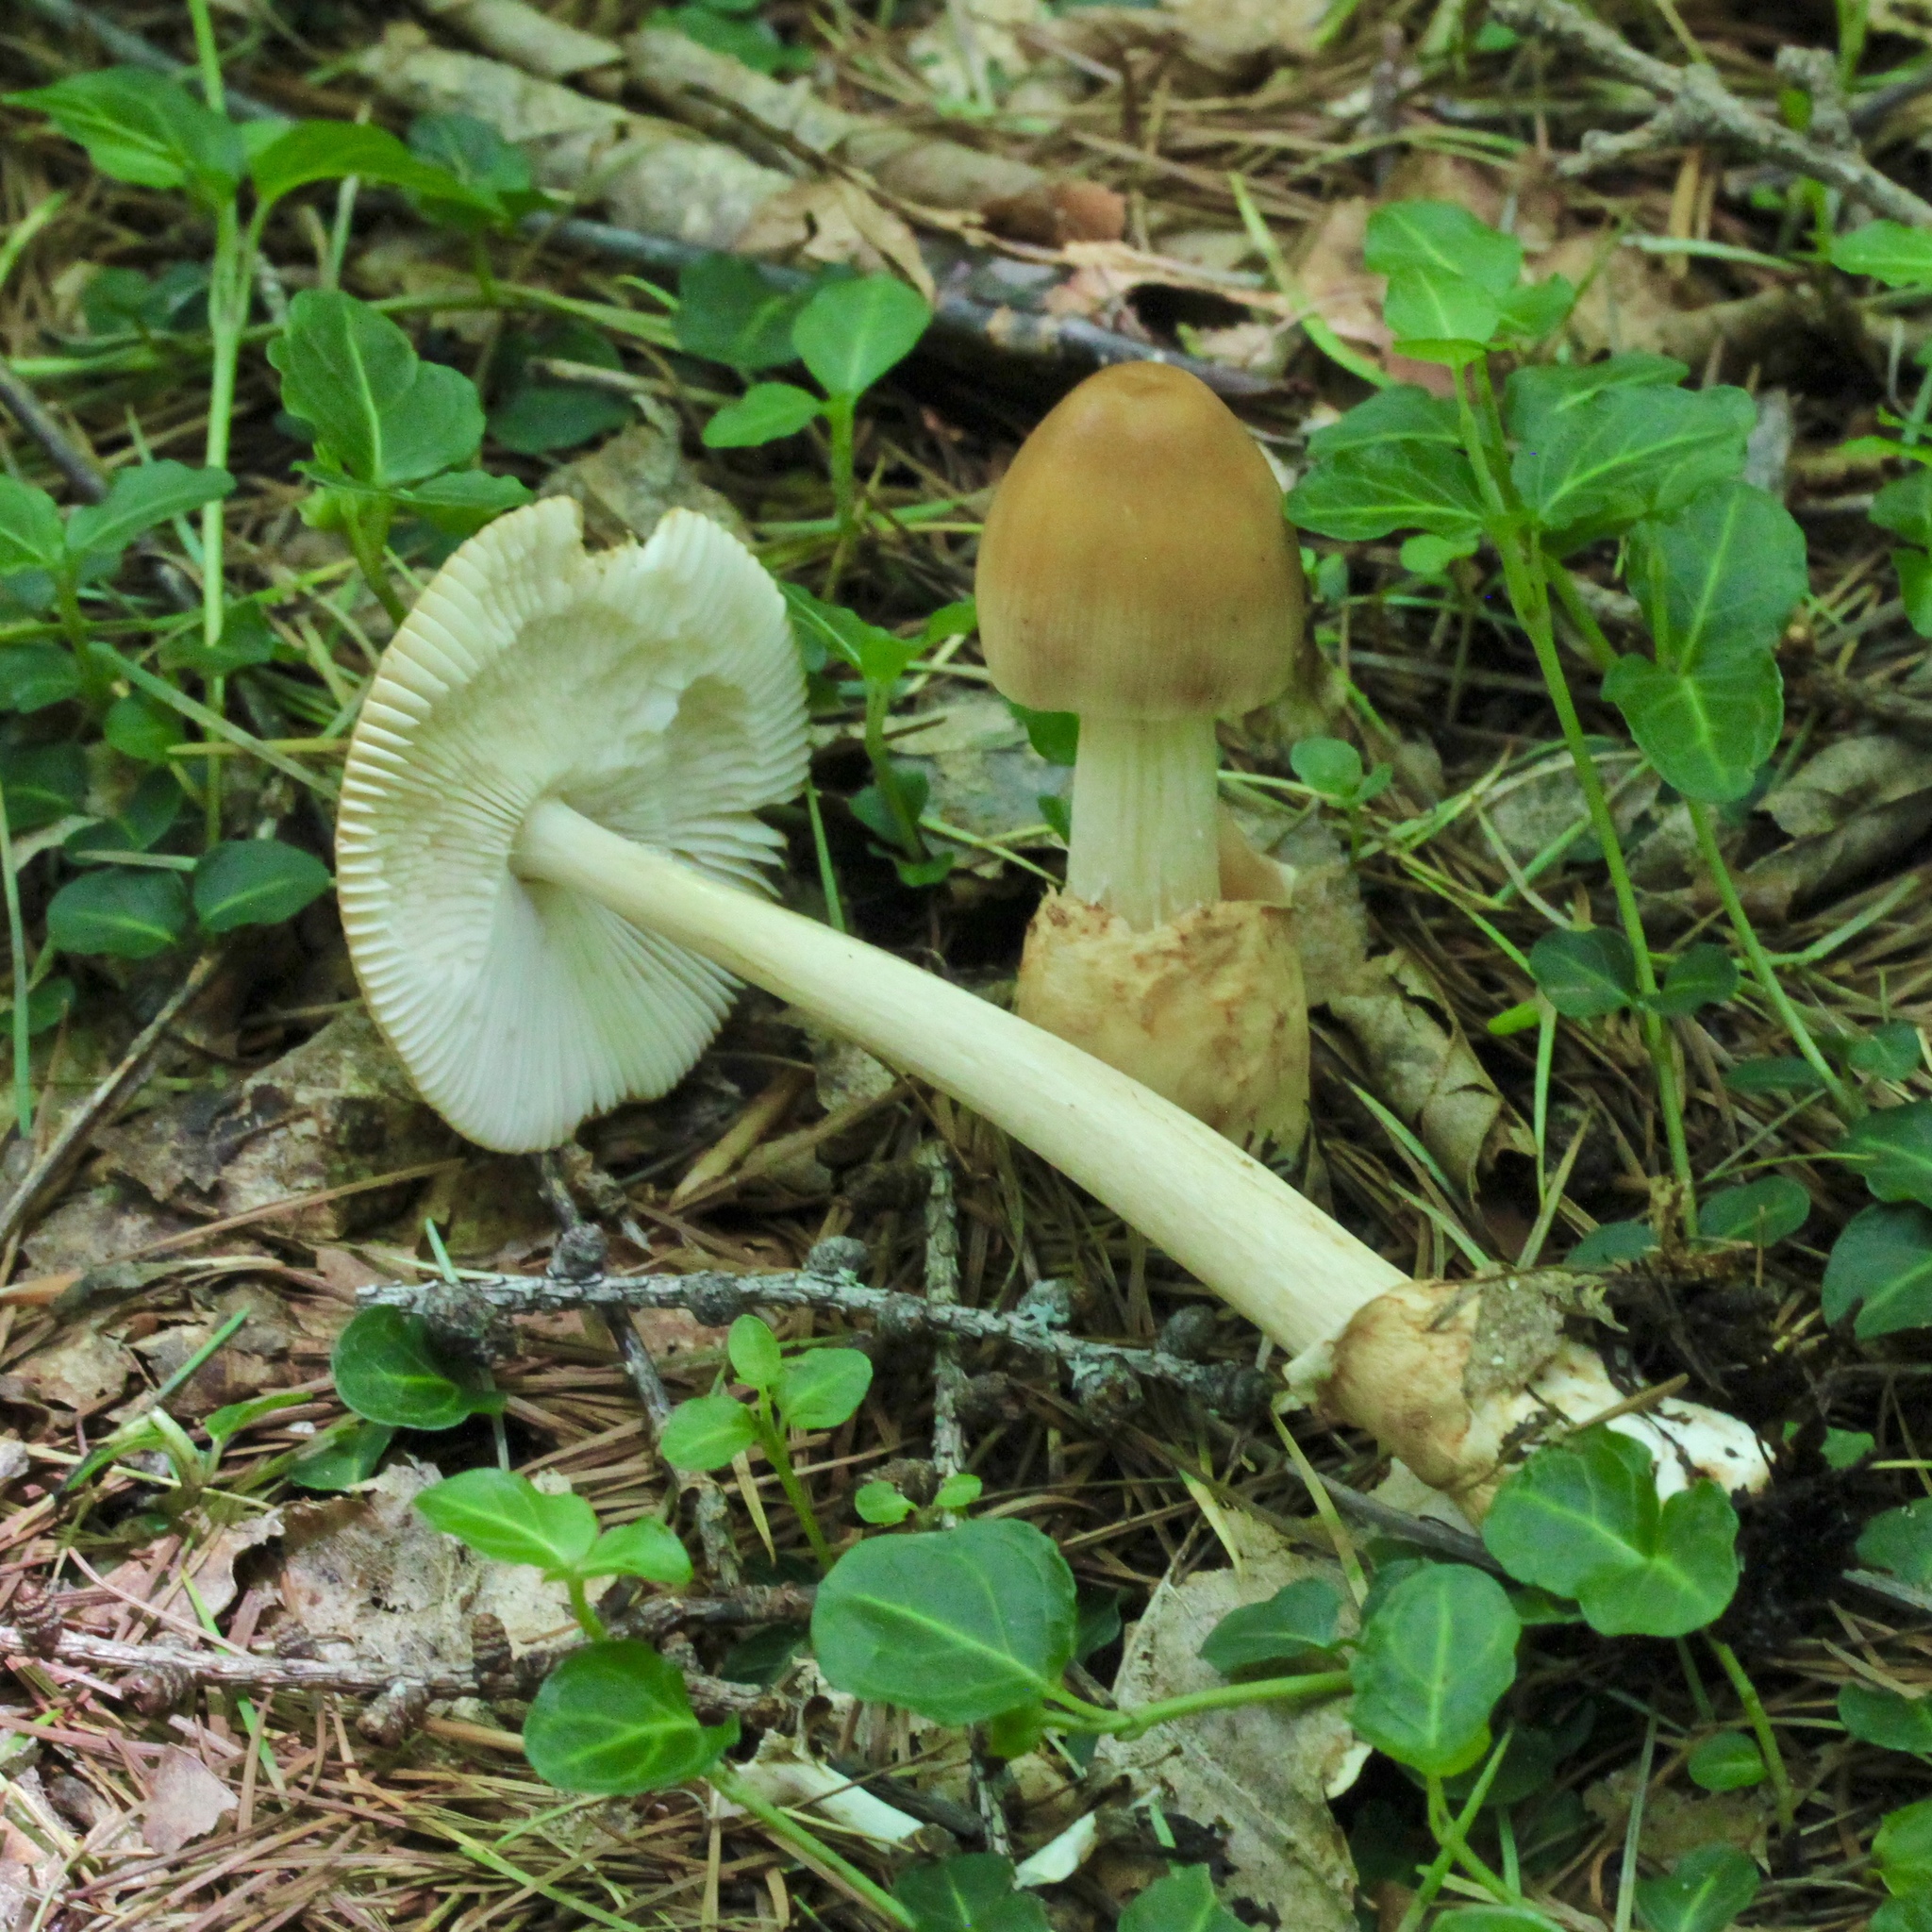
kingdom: Fungi
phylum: Basidiomycota
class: Agaricomycetes
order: Agaricales
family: Amanitaceae
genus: Amanita
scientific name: Amanita fulva
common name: Tawny grisette
